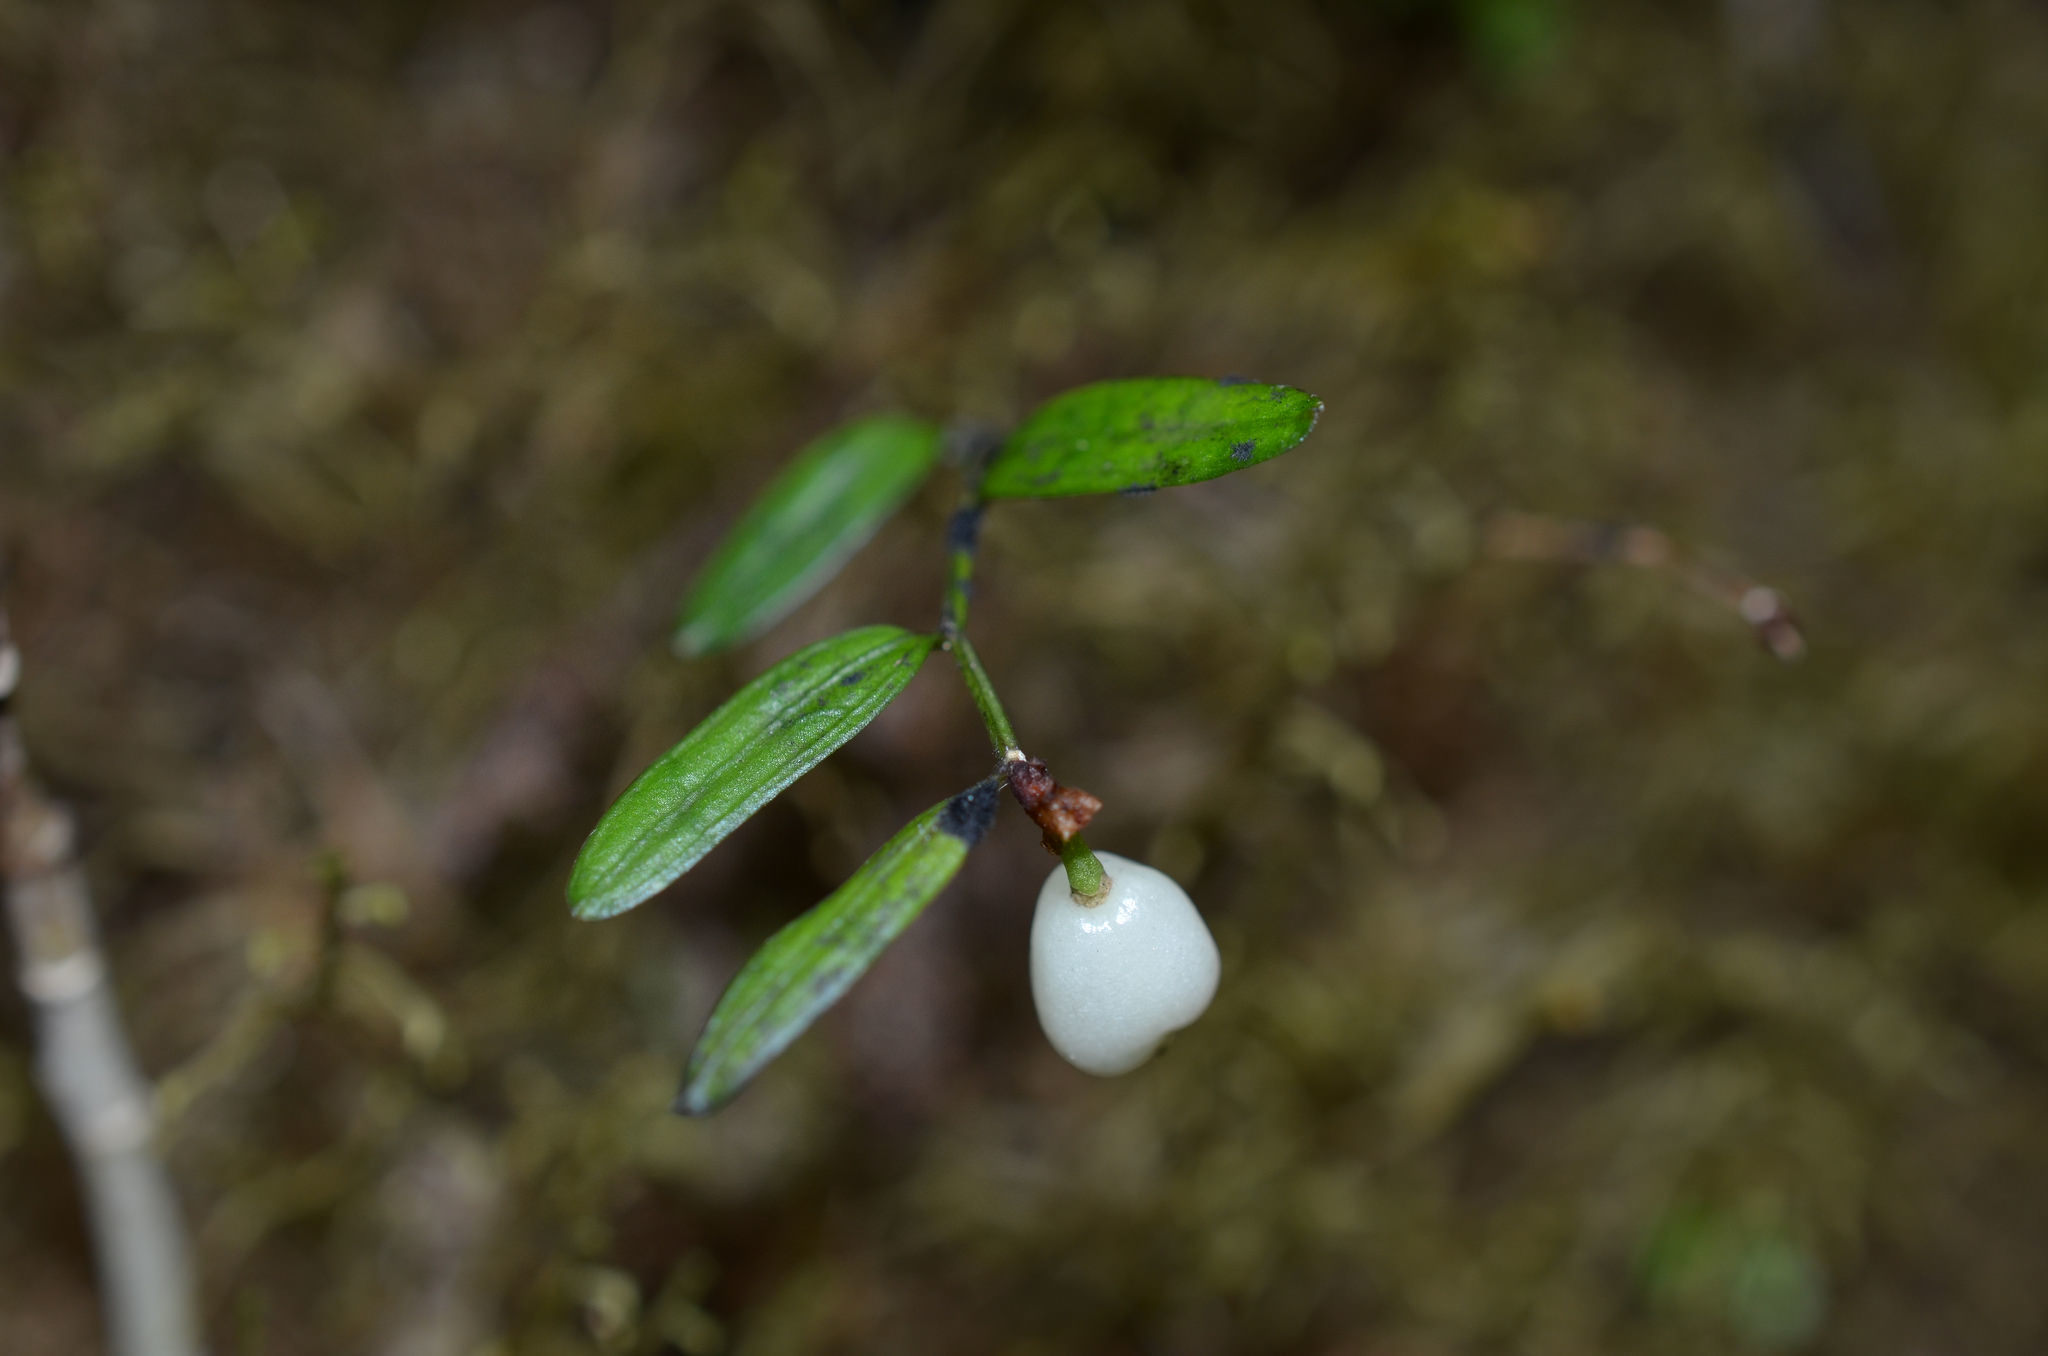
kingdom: Plantae
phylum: Tracheophyta
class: Liliopsida
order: Liliales
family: Alstroemeriaceae
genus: Luzuriaga
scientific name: Luzuriaga parviflora
